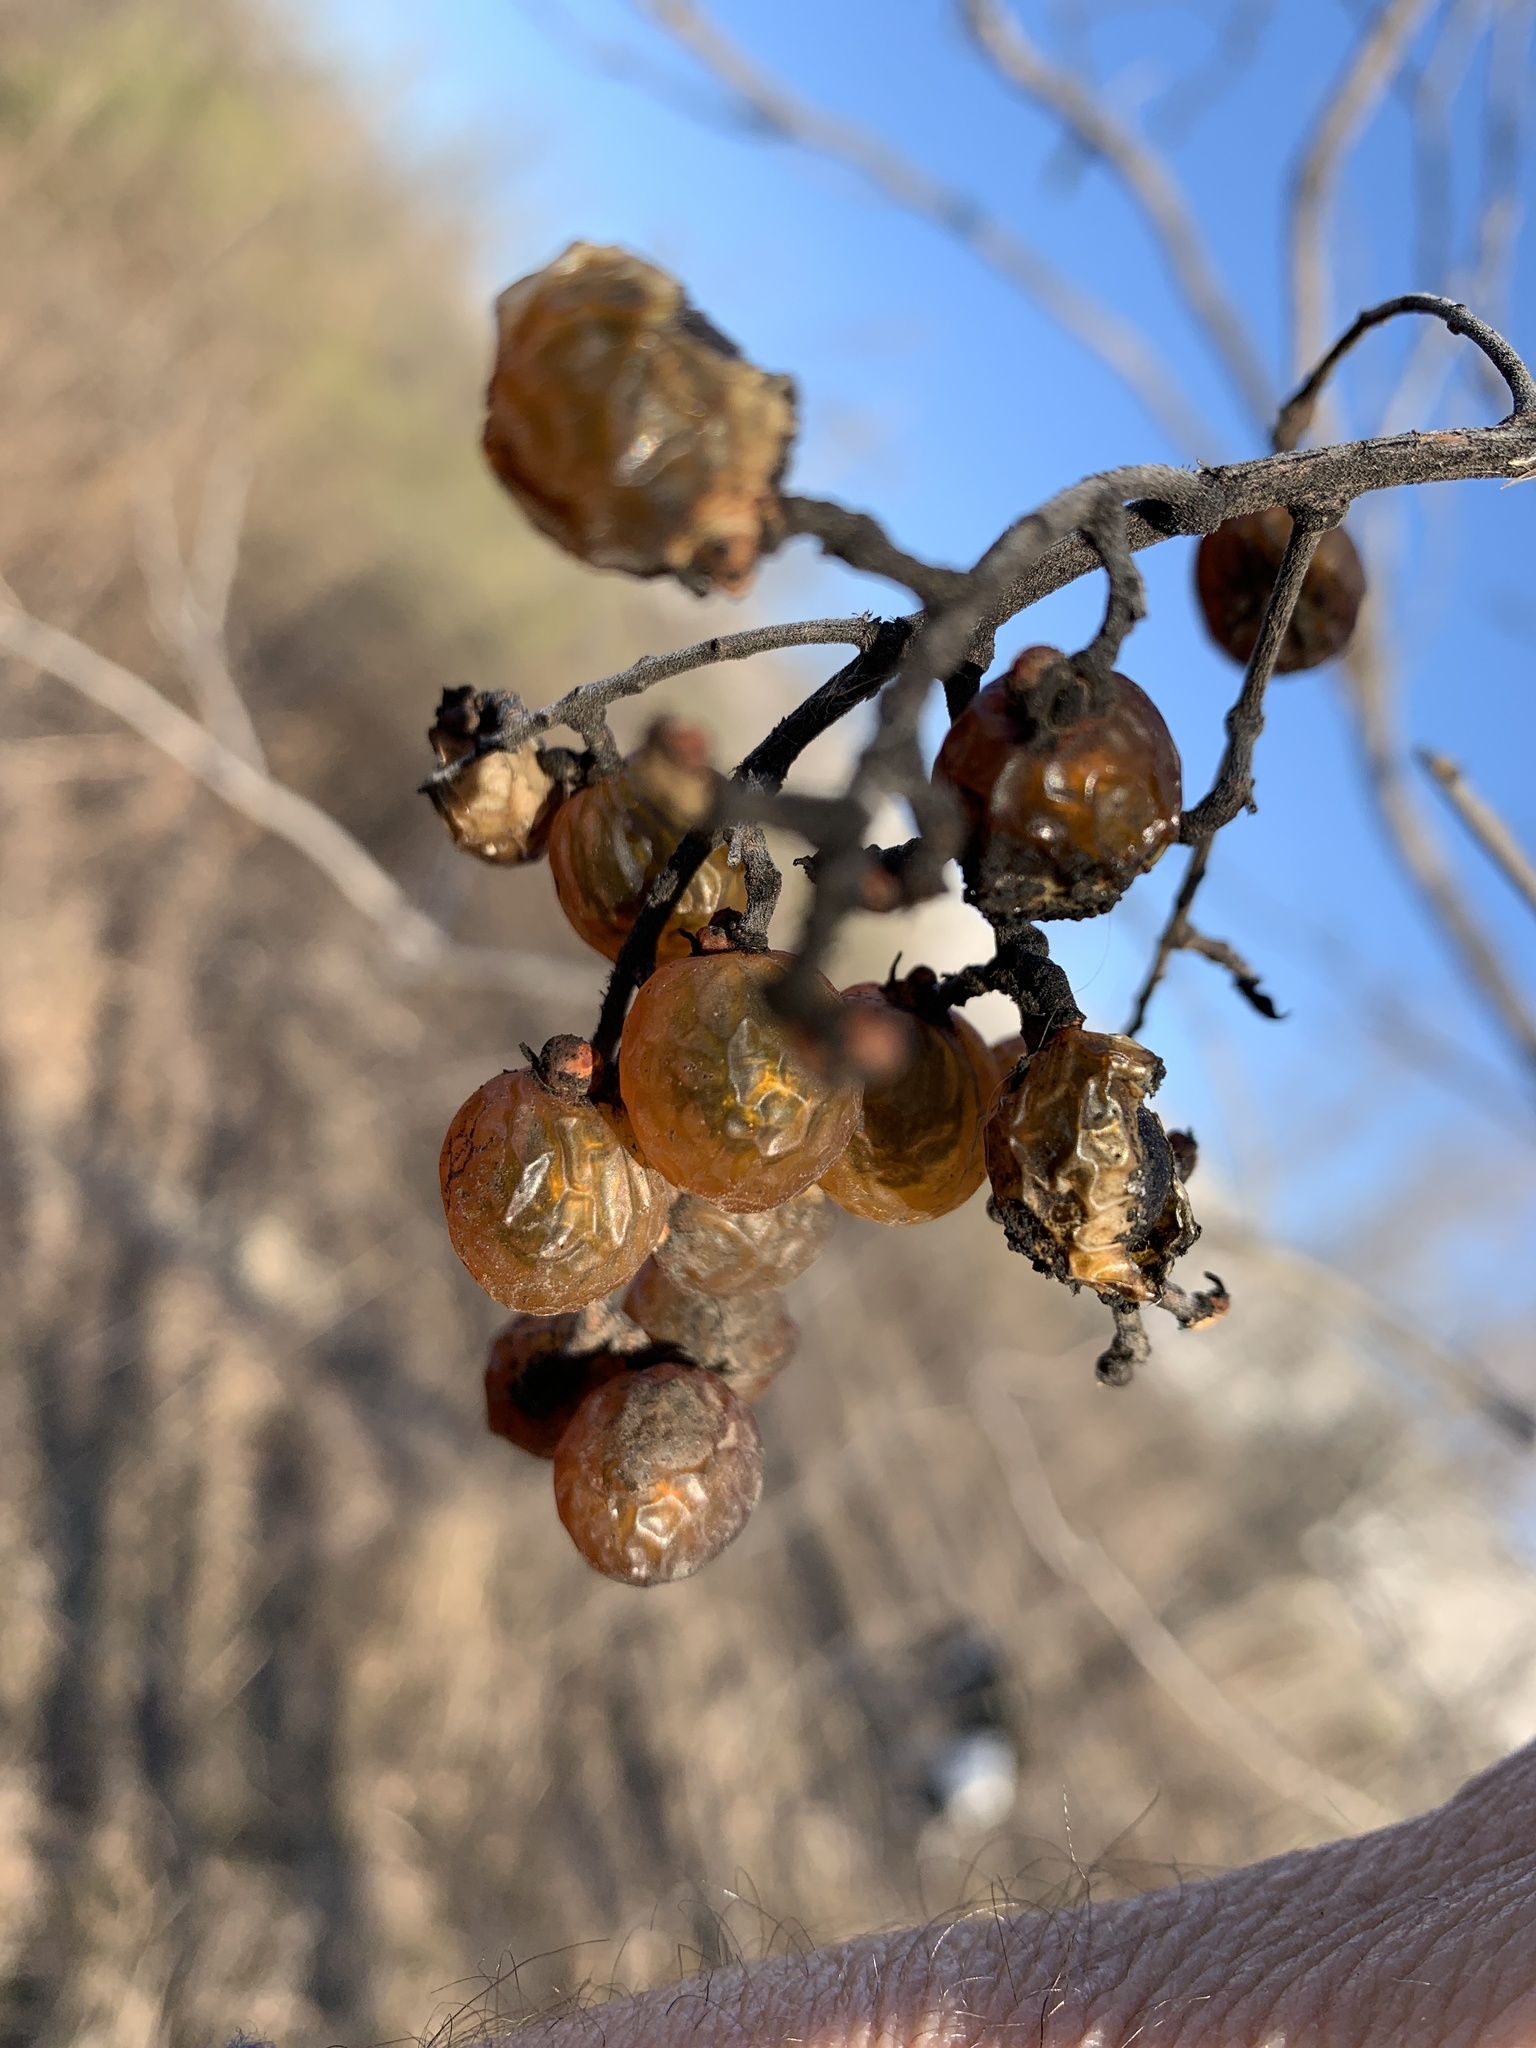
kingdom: Plantae
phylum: Tracheophyta
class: Magnoliopsida
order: Sapindales
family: Sapindaceae
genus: Sapindus
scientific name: Sapindus drummondii
